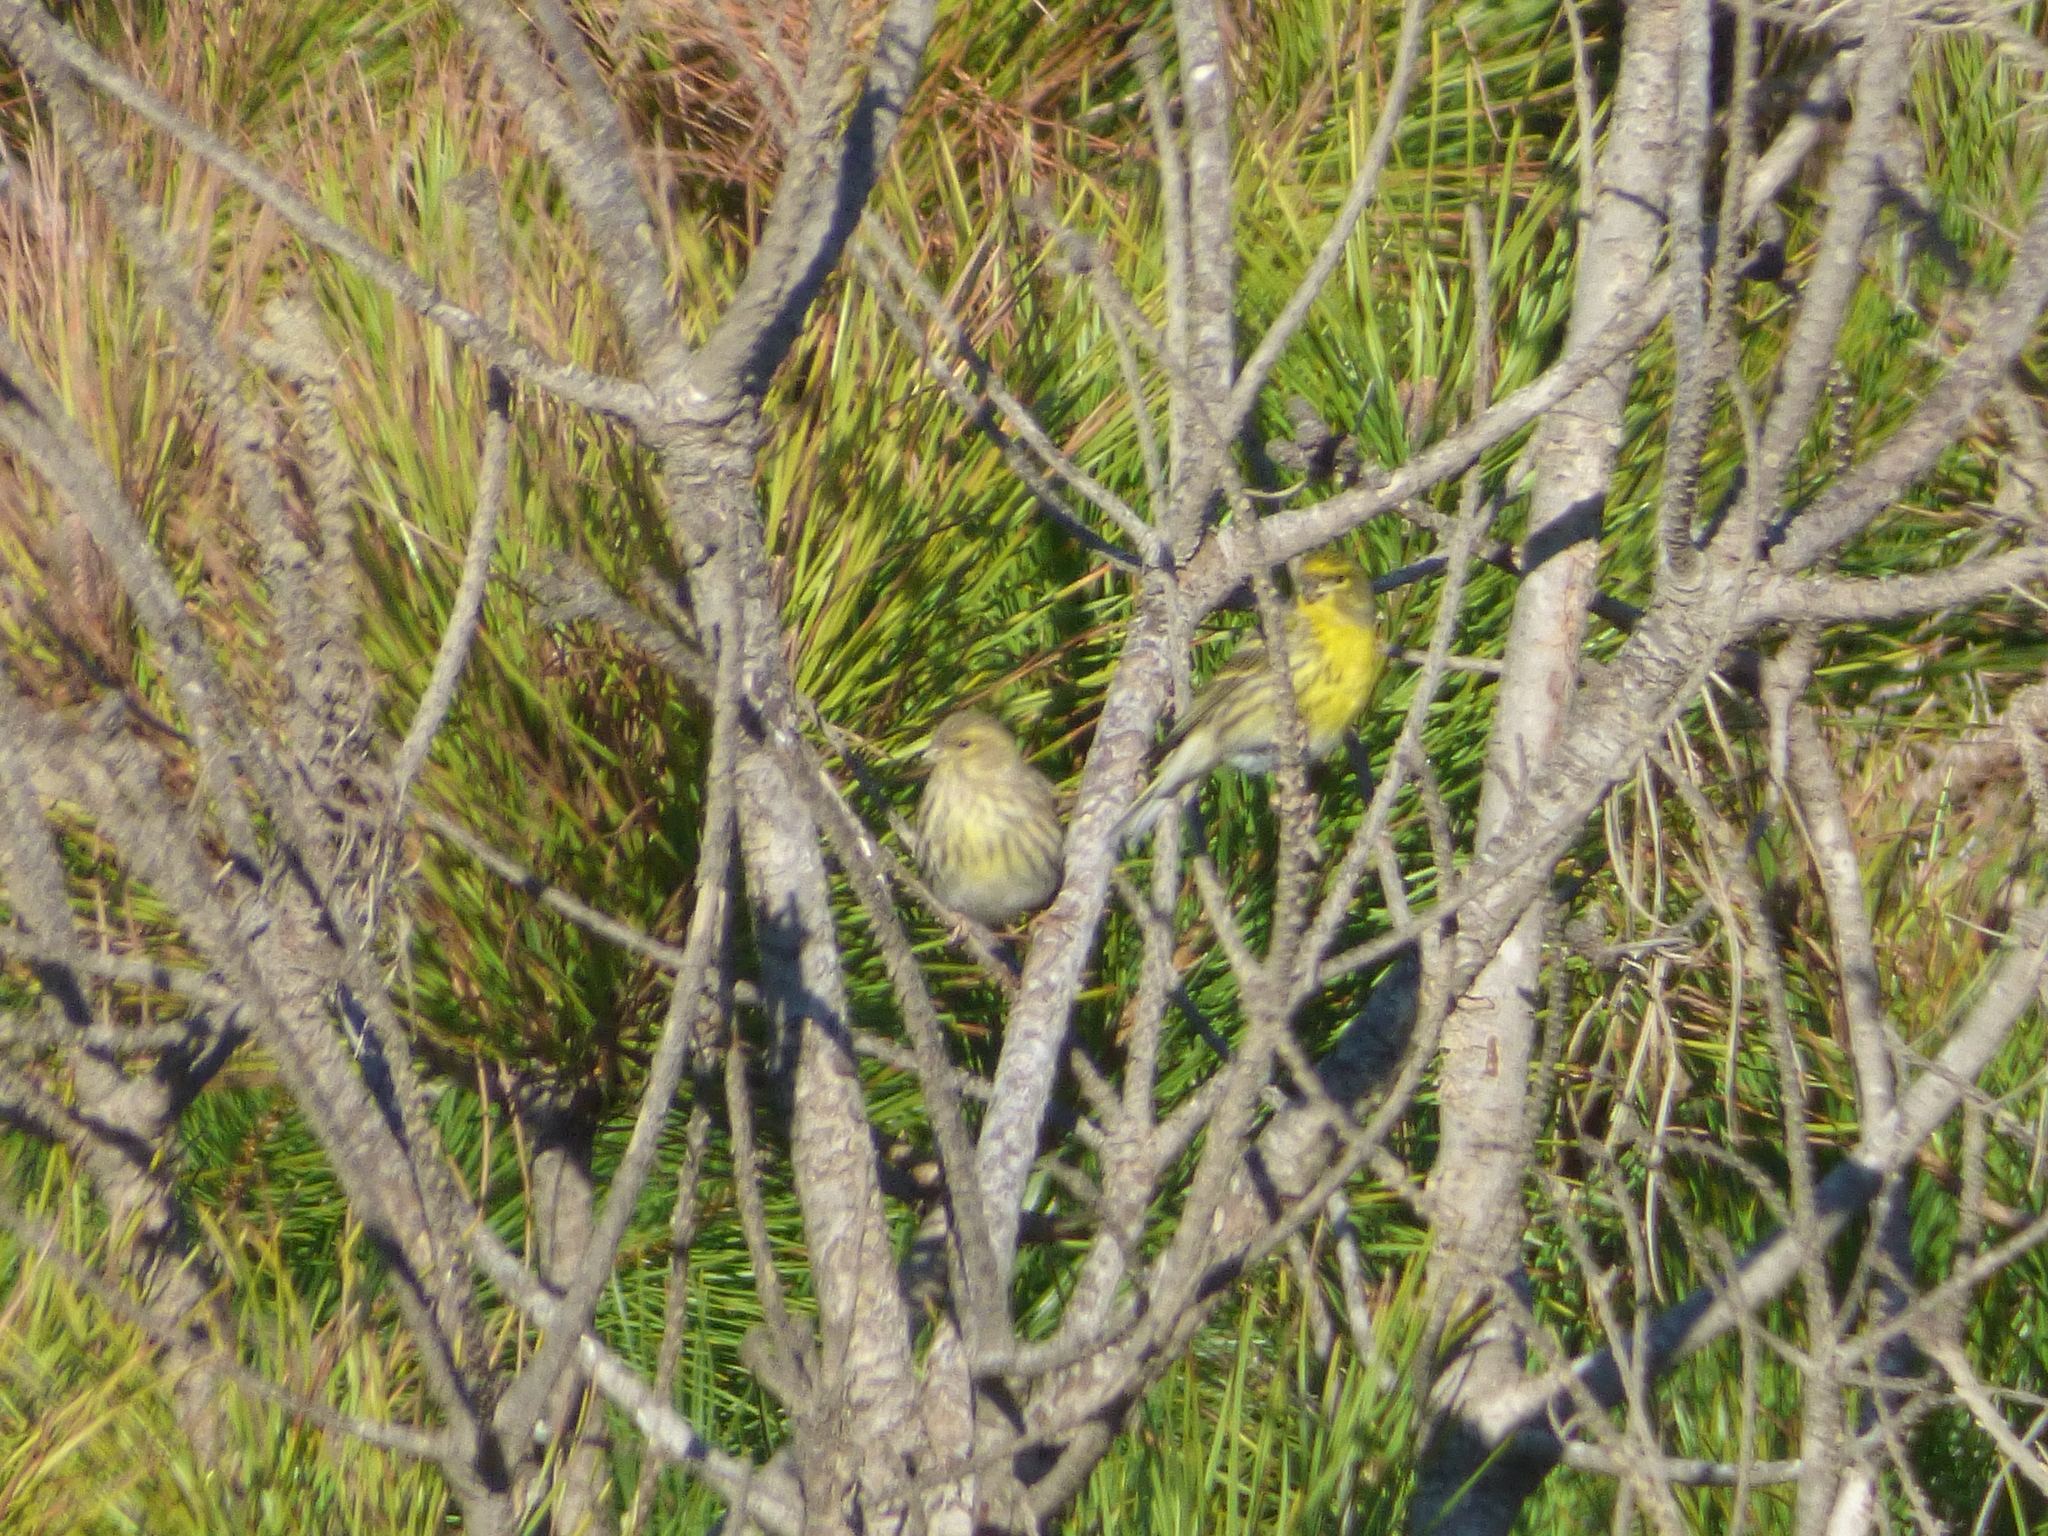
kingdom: Animalia
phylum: Chordata
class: Aves
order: Passeriformes
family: Fringillidae
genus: Serinus
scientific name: Serinus serinus
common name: European serin
